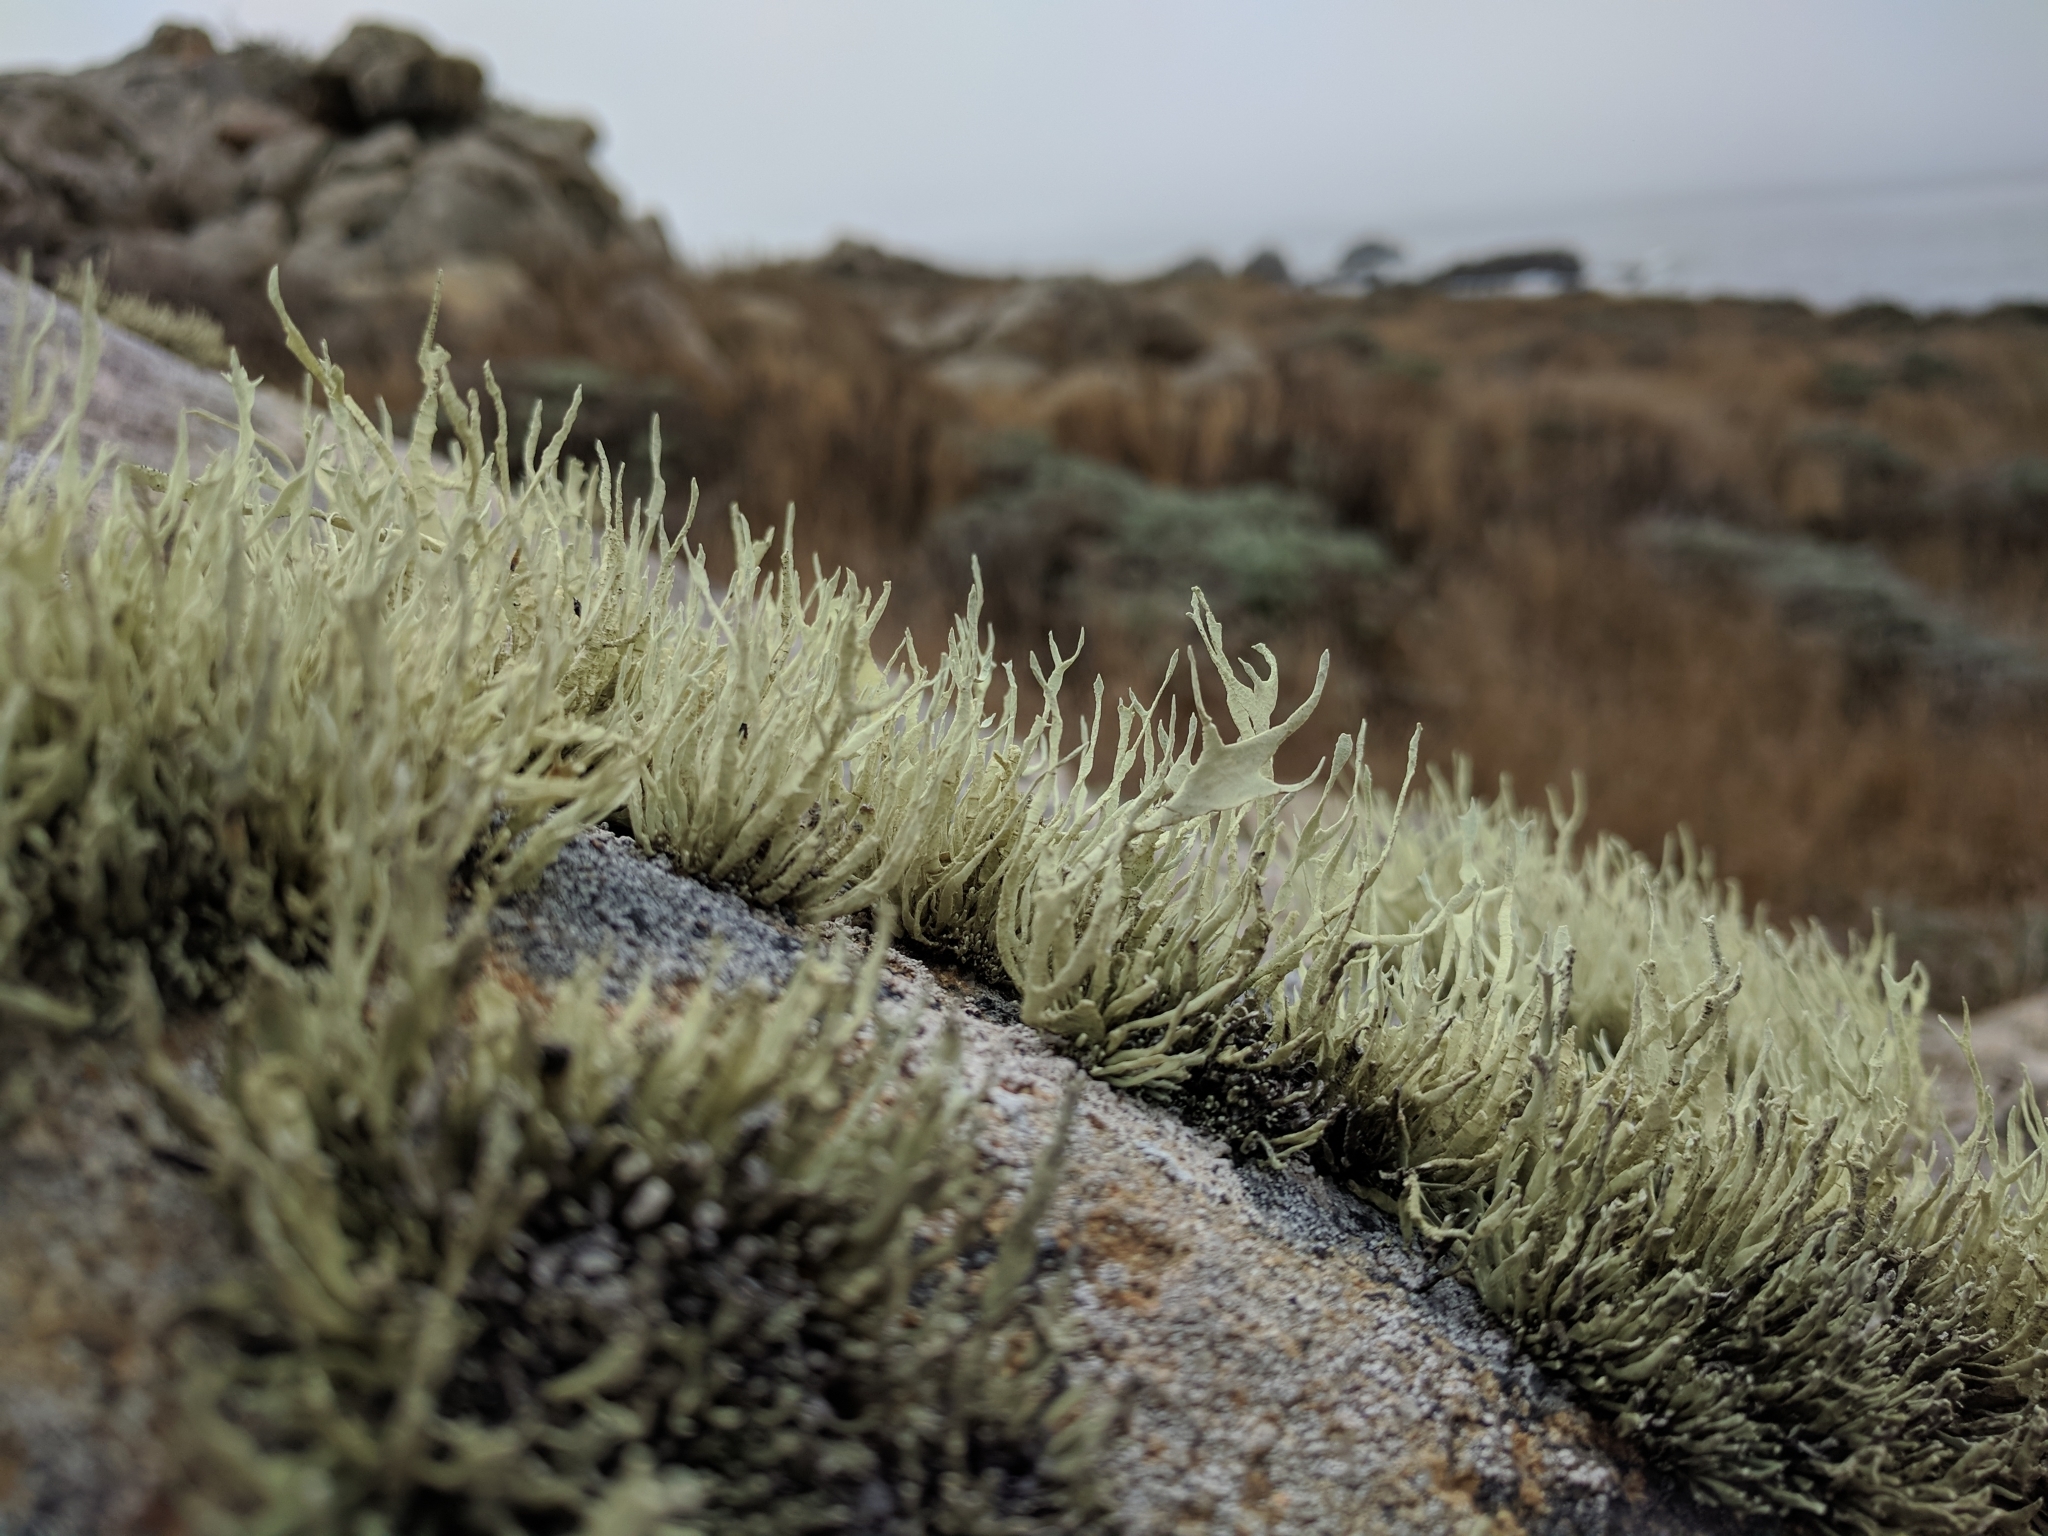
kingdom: Fungi
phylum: Ascomycota
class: Lecanoromycetes
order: Lecanorales
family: Ramalinaceae
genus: Niebla
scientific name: Niebla homalea
